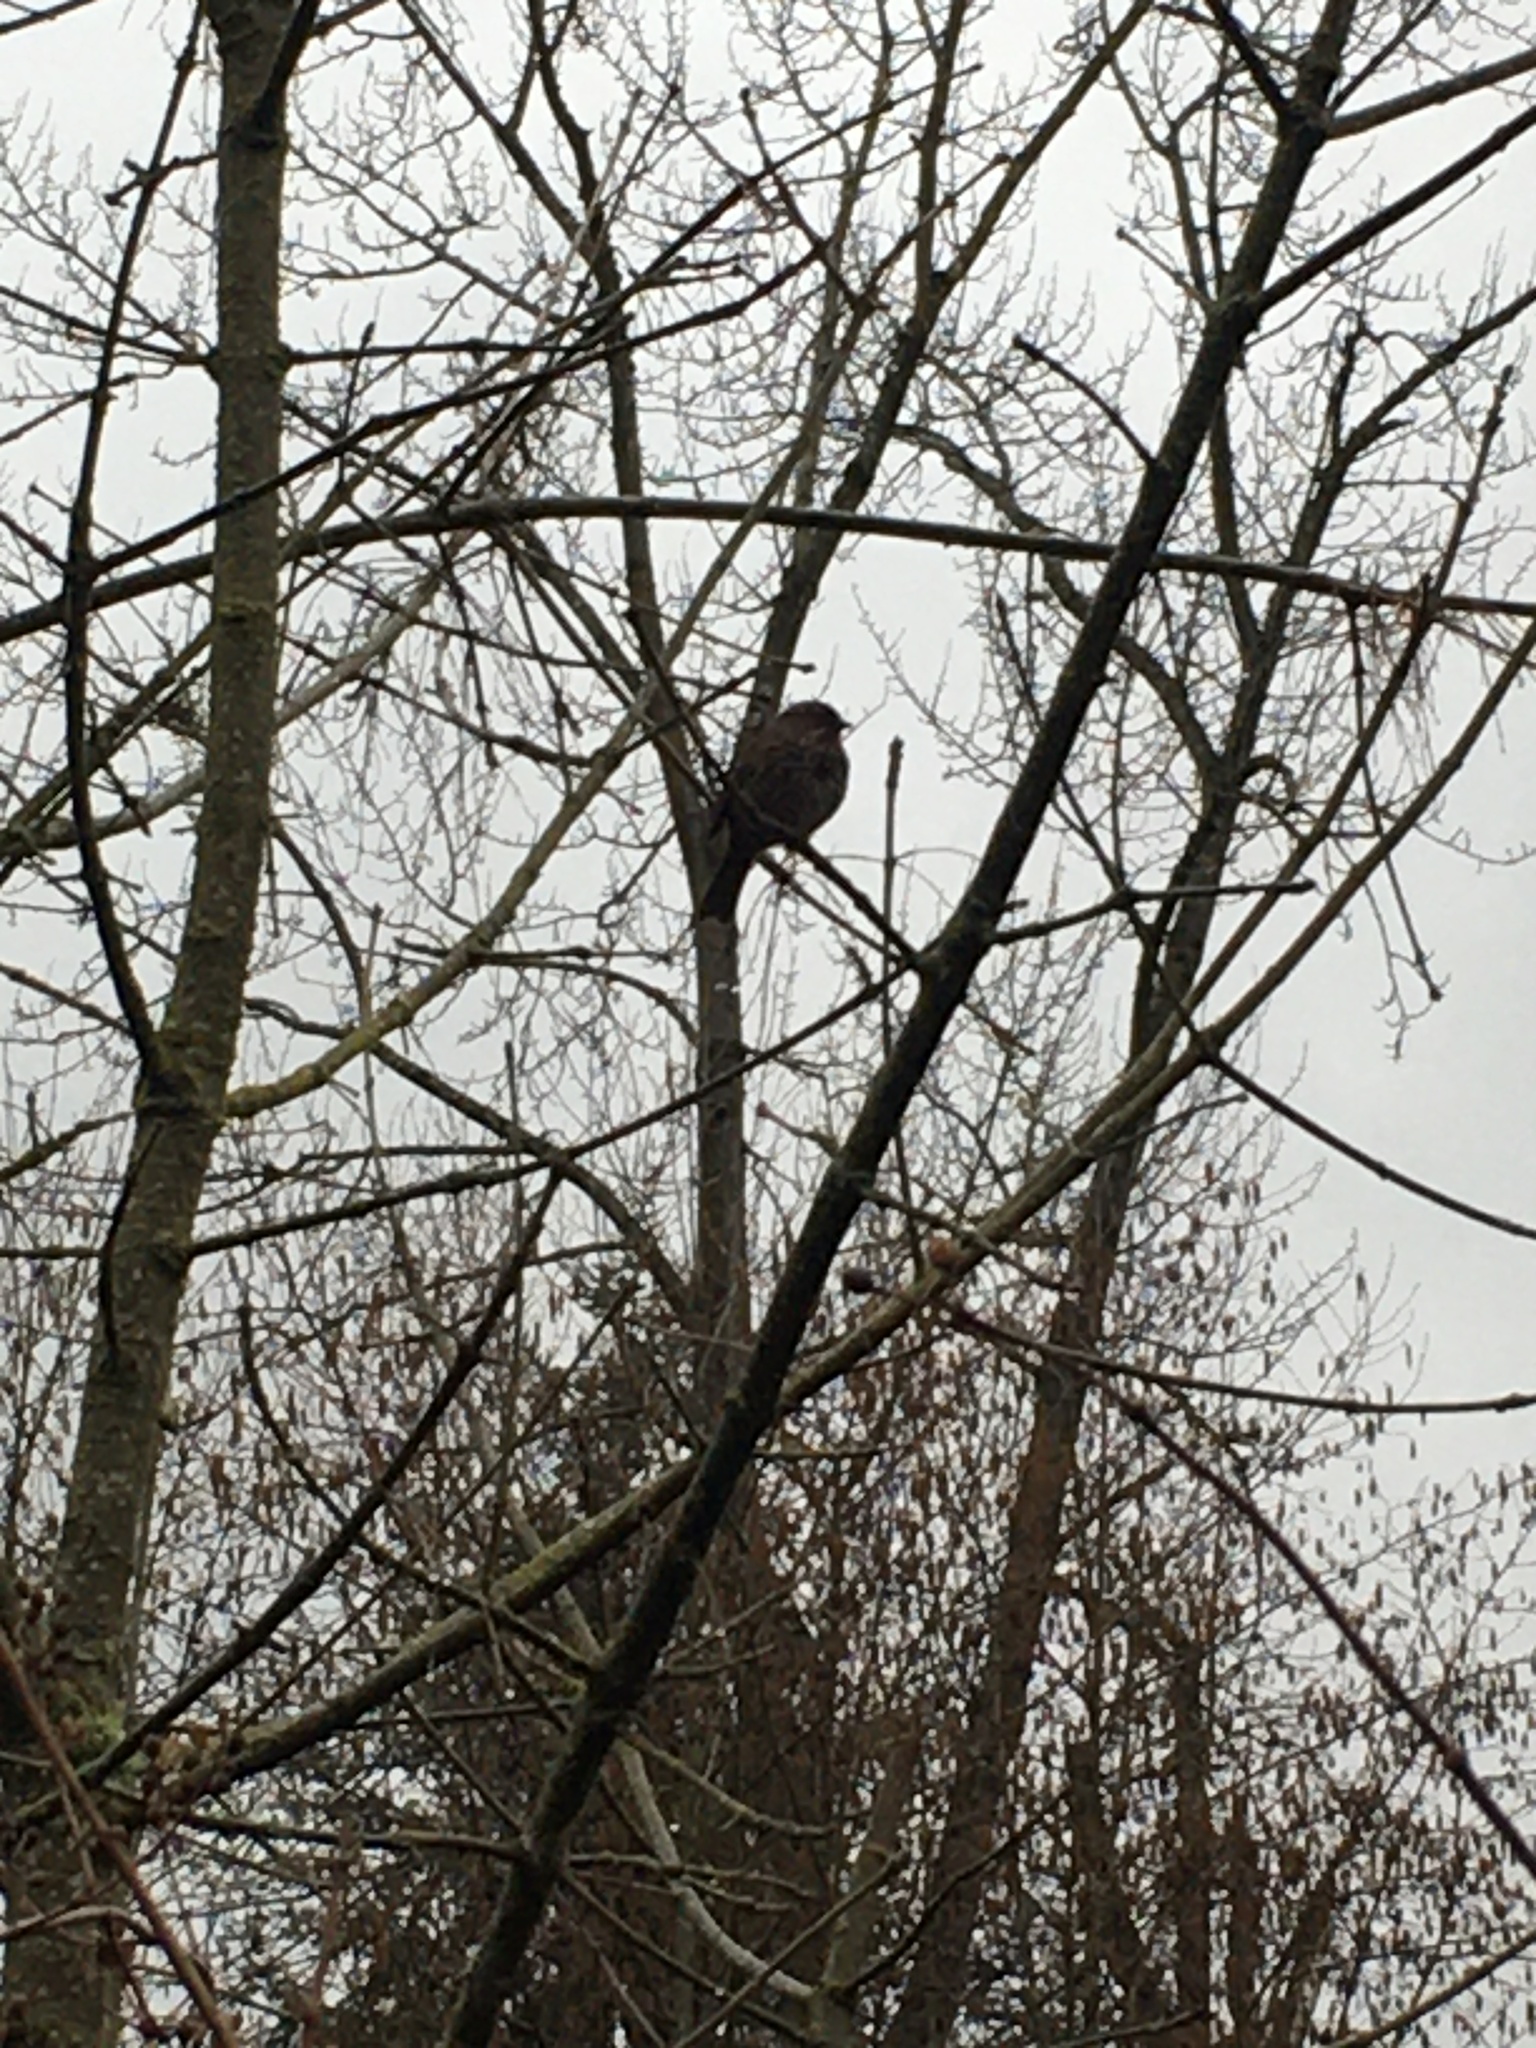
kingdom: Animalia
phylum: Chordata
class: Aves
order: Passeriformes
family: Passerellidae
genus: Melospiza
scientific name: Melospiza melodia
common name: Song sparrow
